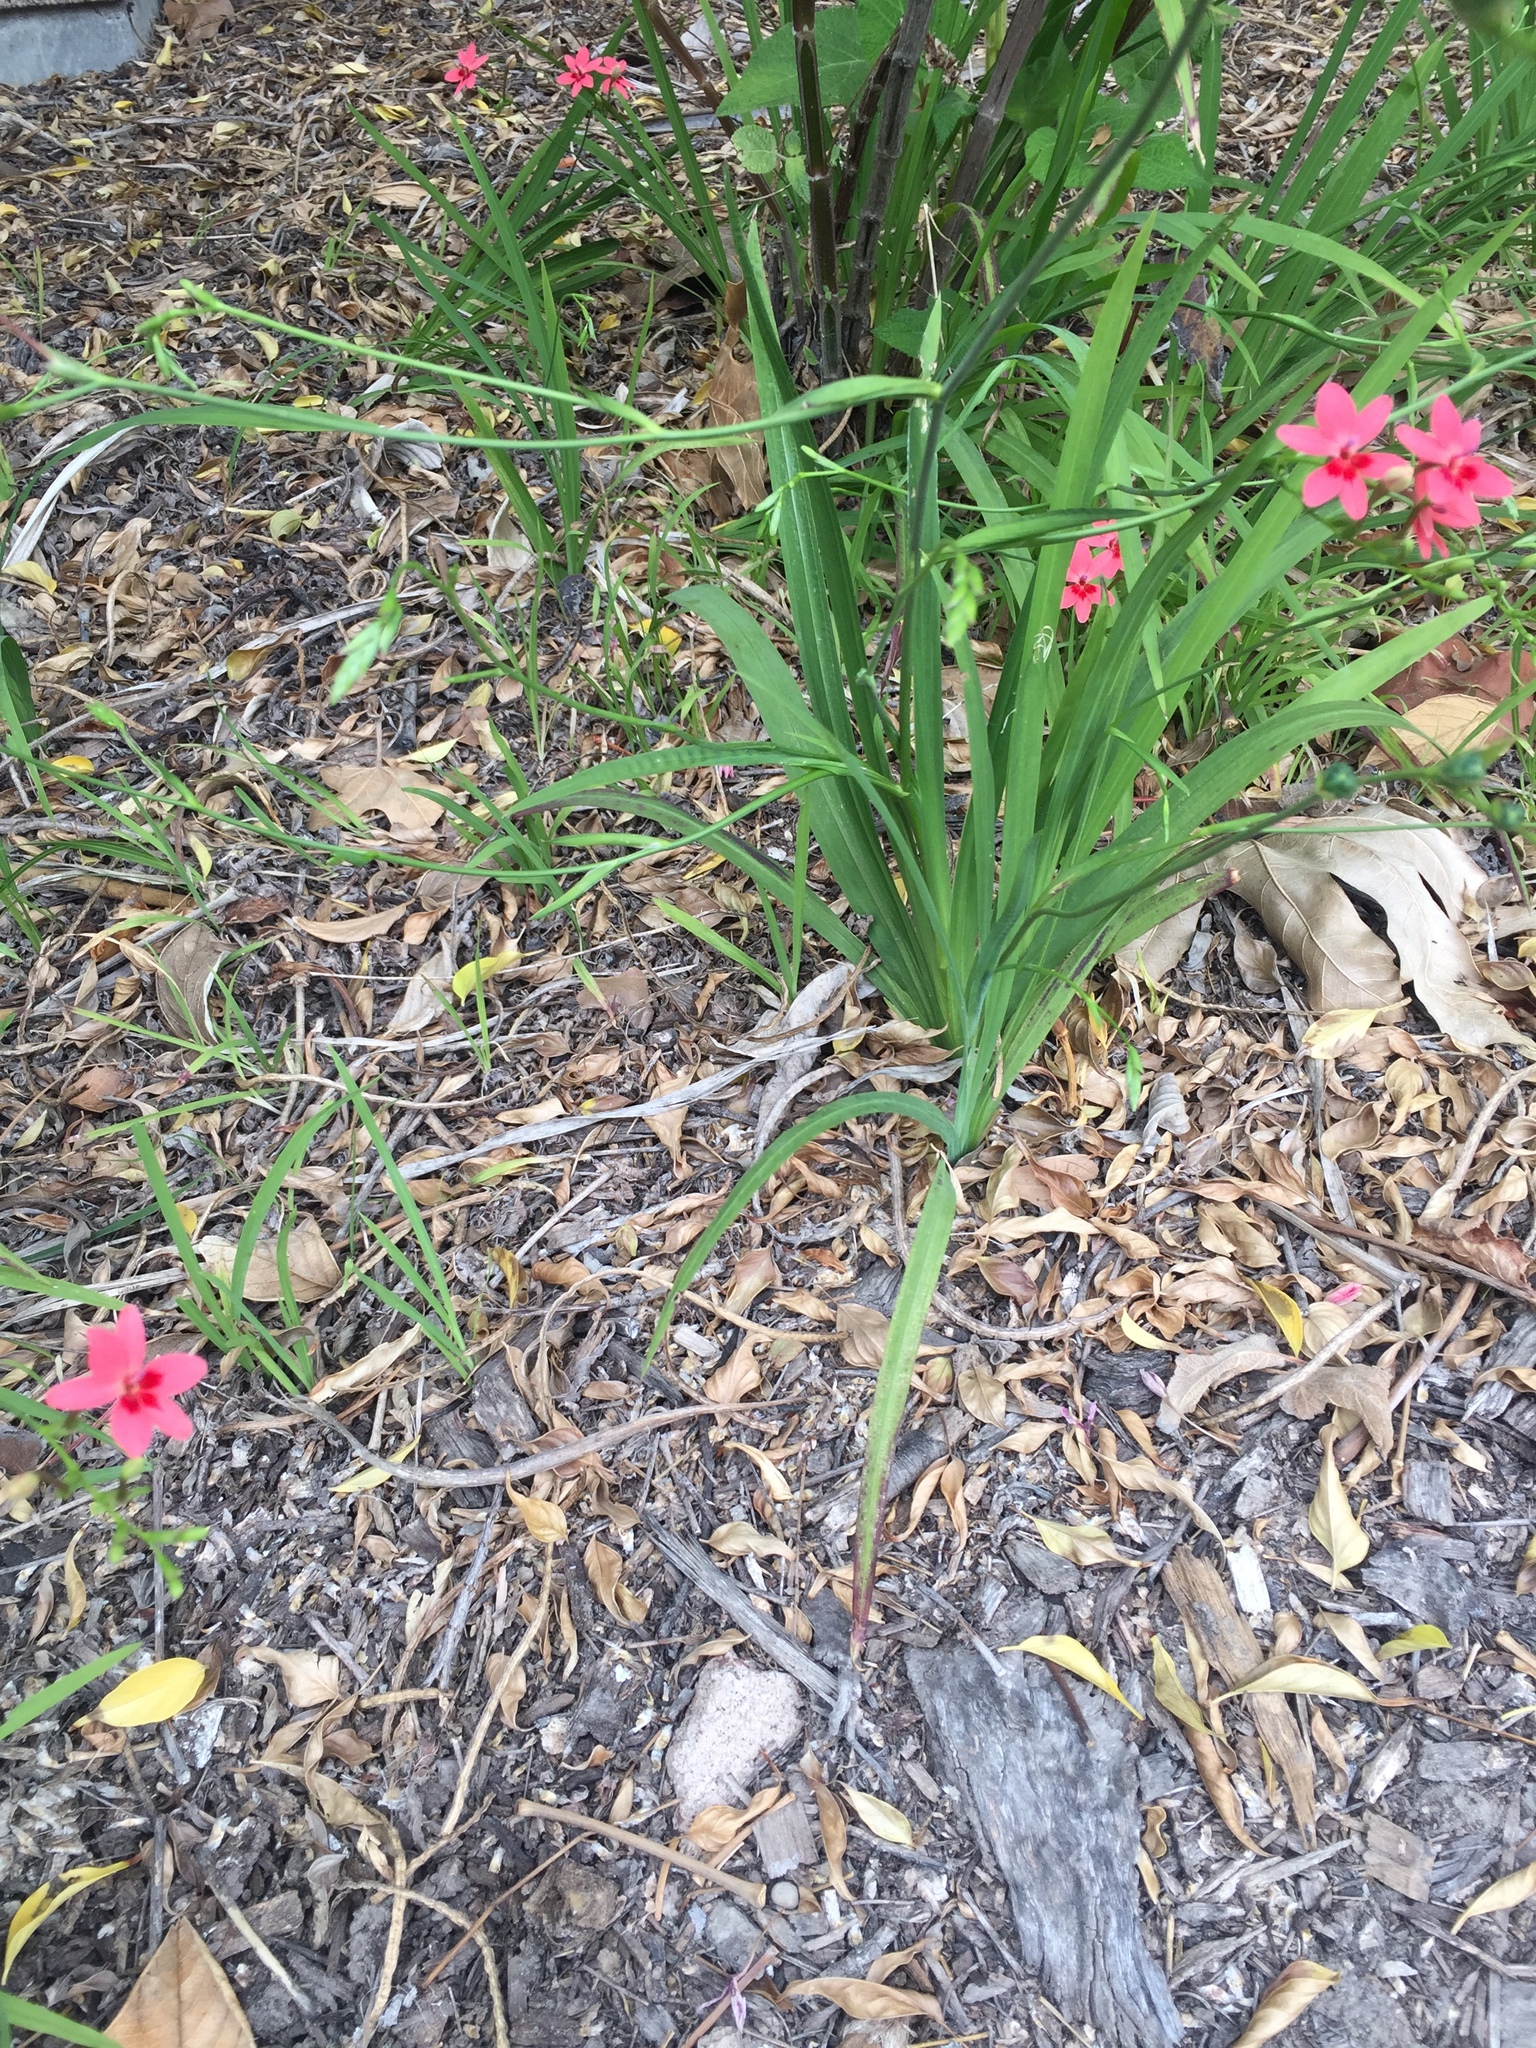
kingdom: Plantae
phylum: Tracheophyta
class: Liliopsida
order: Asparagales
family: Iridaceae
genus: Freesia
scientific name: Freesia laxa
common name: False freesia
